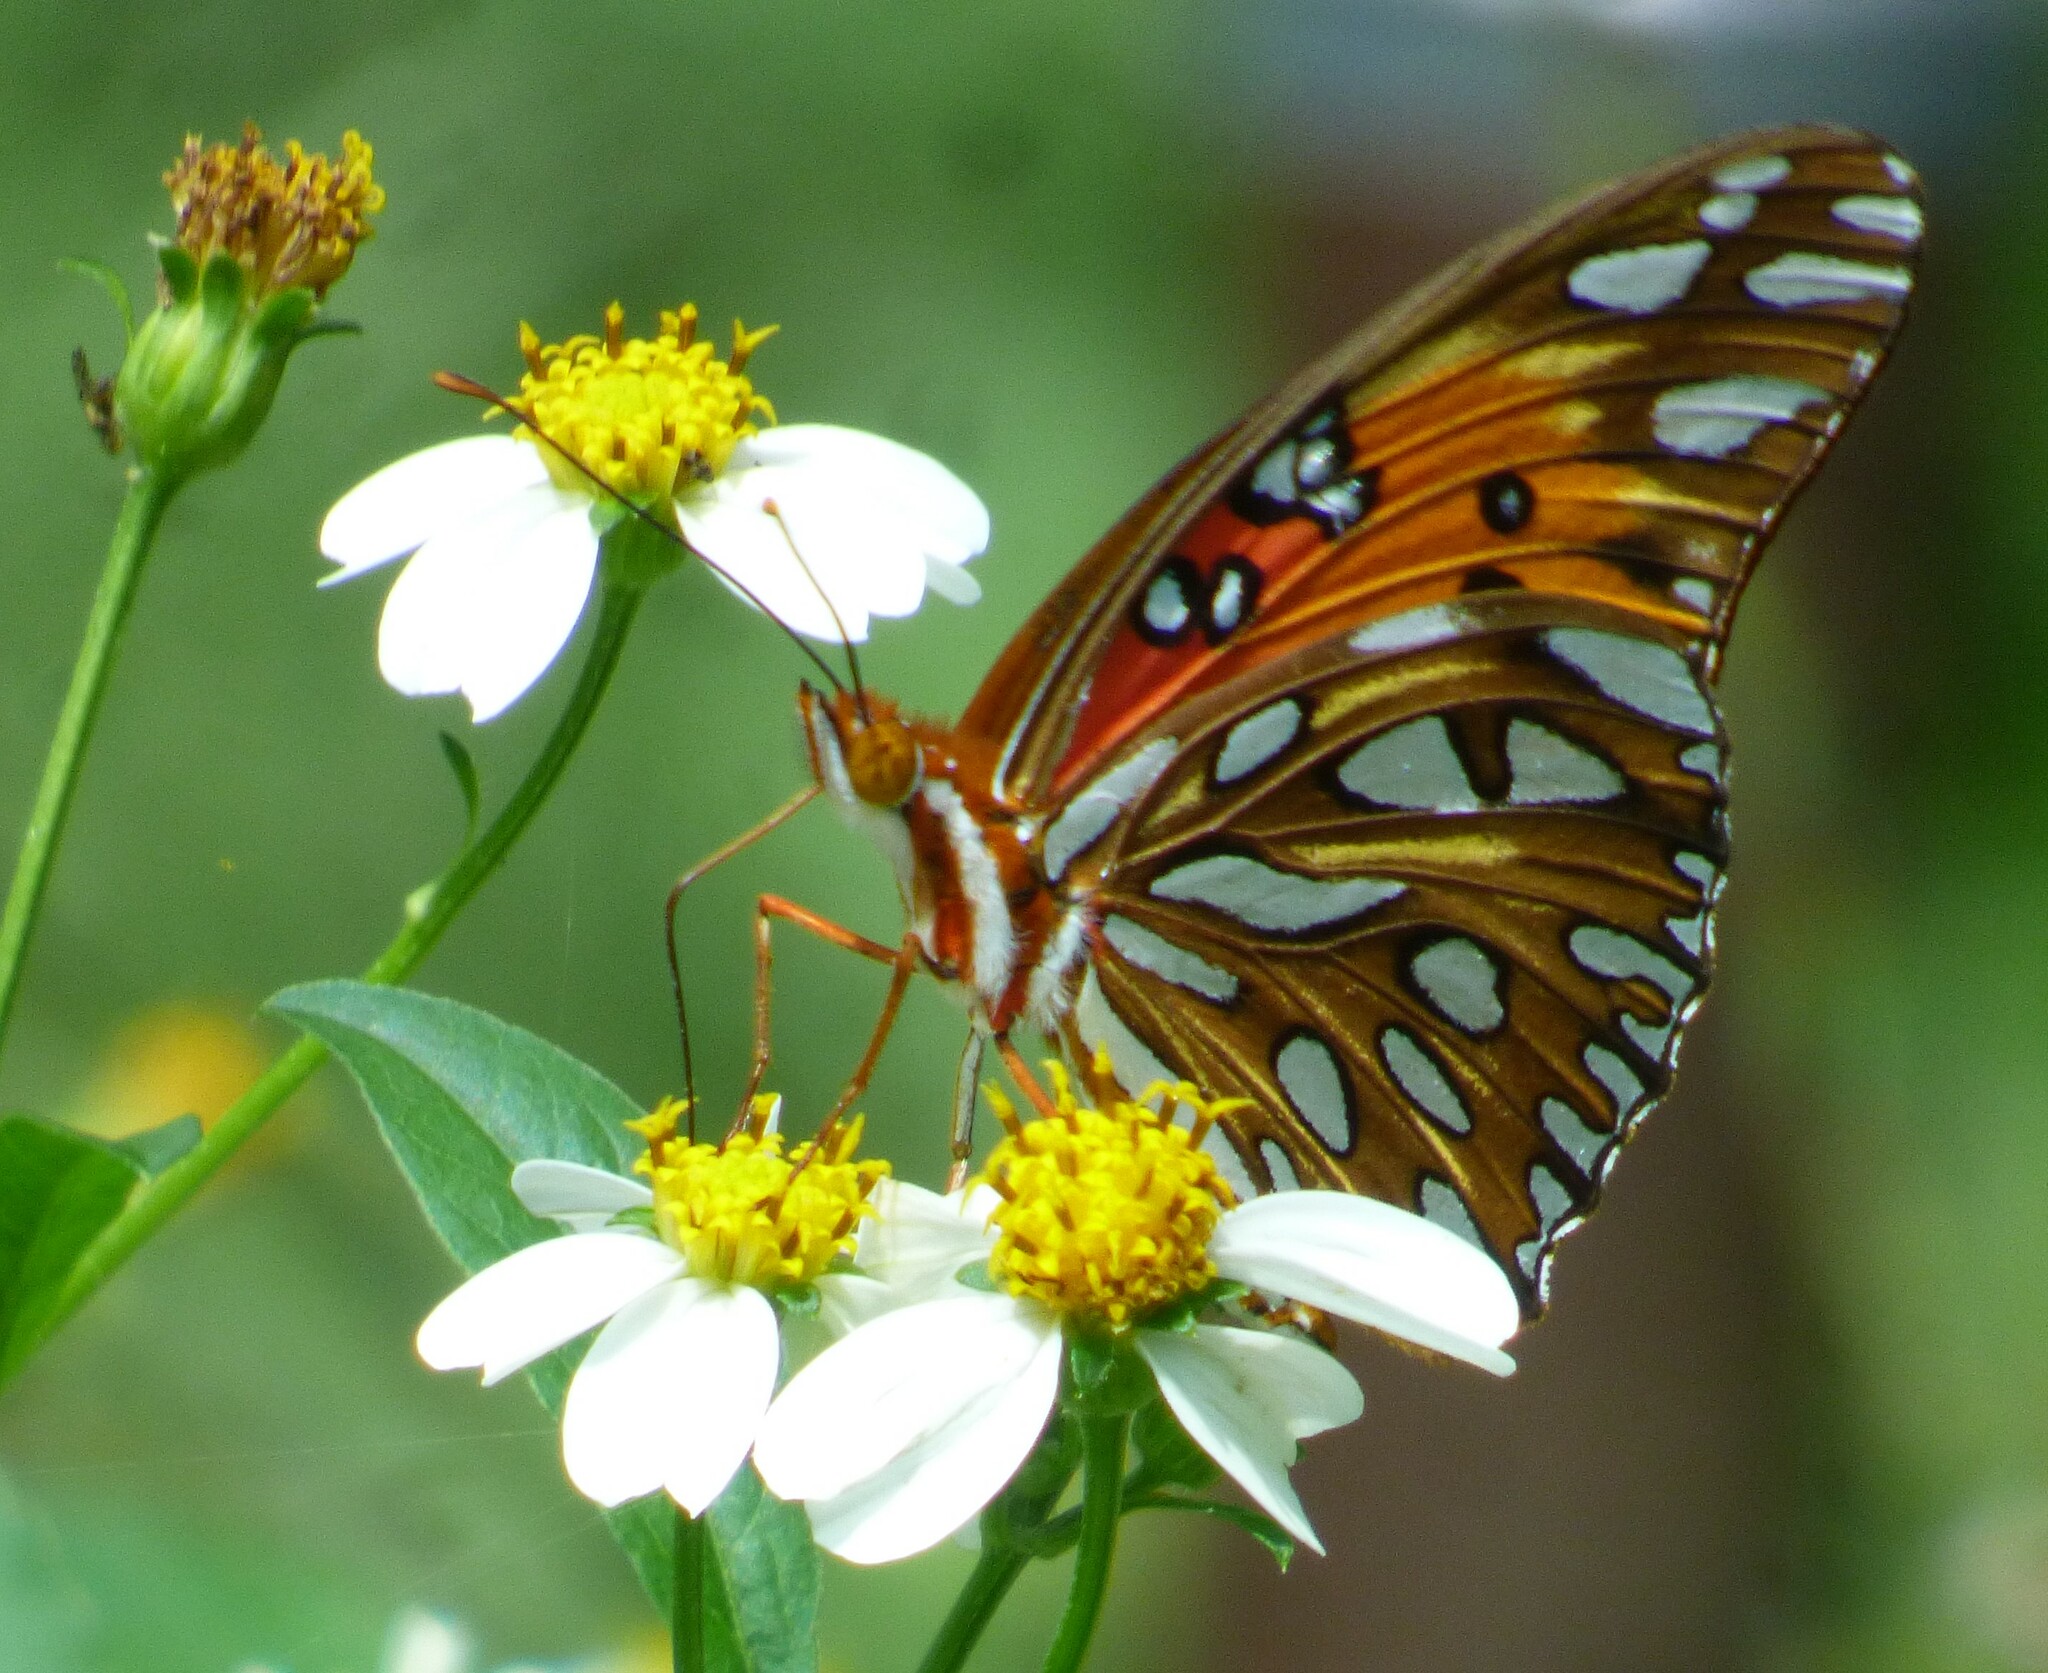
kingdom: Animalia
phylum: Arthropoda
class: Insecta
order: Lepidoptera
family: Nymphalidae
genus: Dione
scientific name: Dione vanillae
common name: Gulf fritillary
